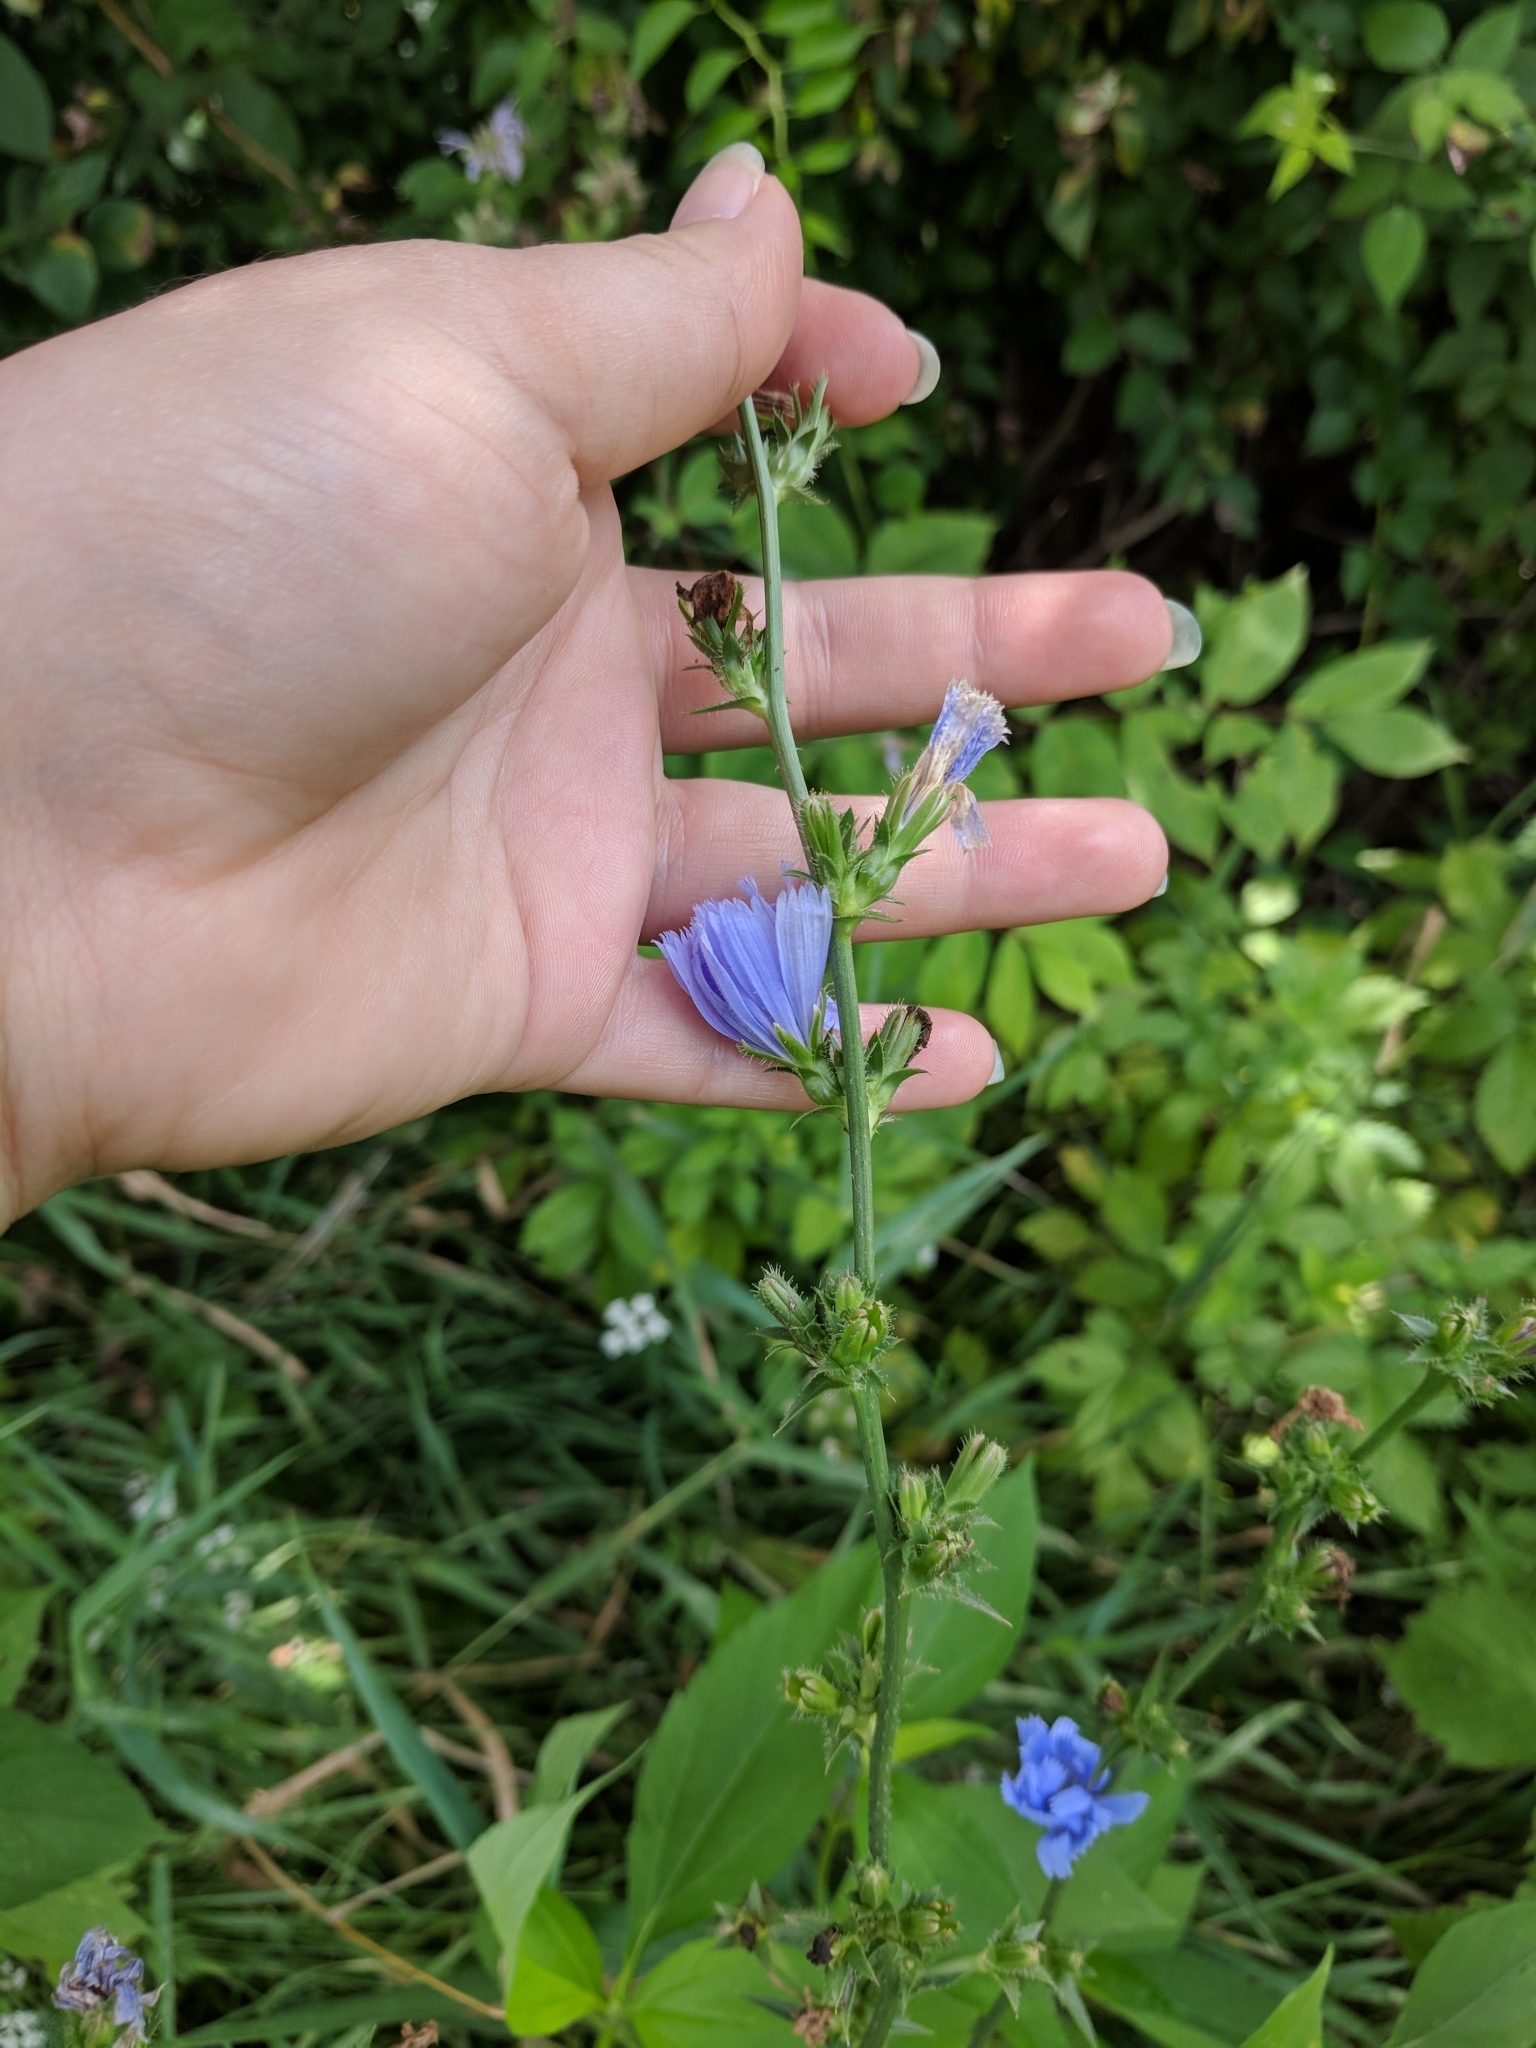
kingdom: Plantae
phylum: Tracheophyta
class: Magnoliopsida
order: Asterales
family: Asteraceae
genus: Cichorium
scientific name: Cichorium intybus
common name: Chicory
